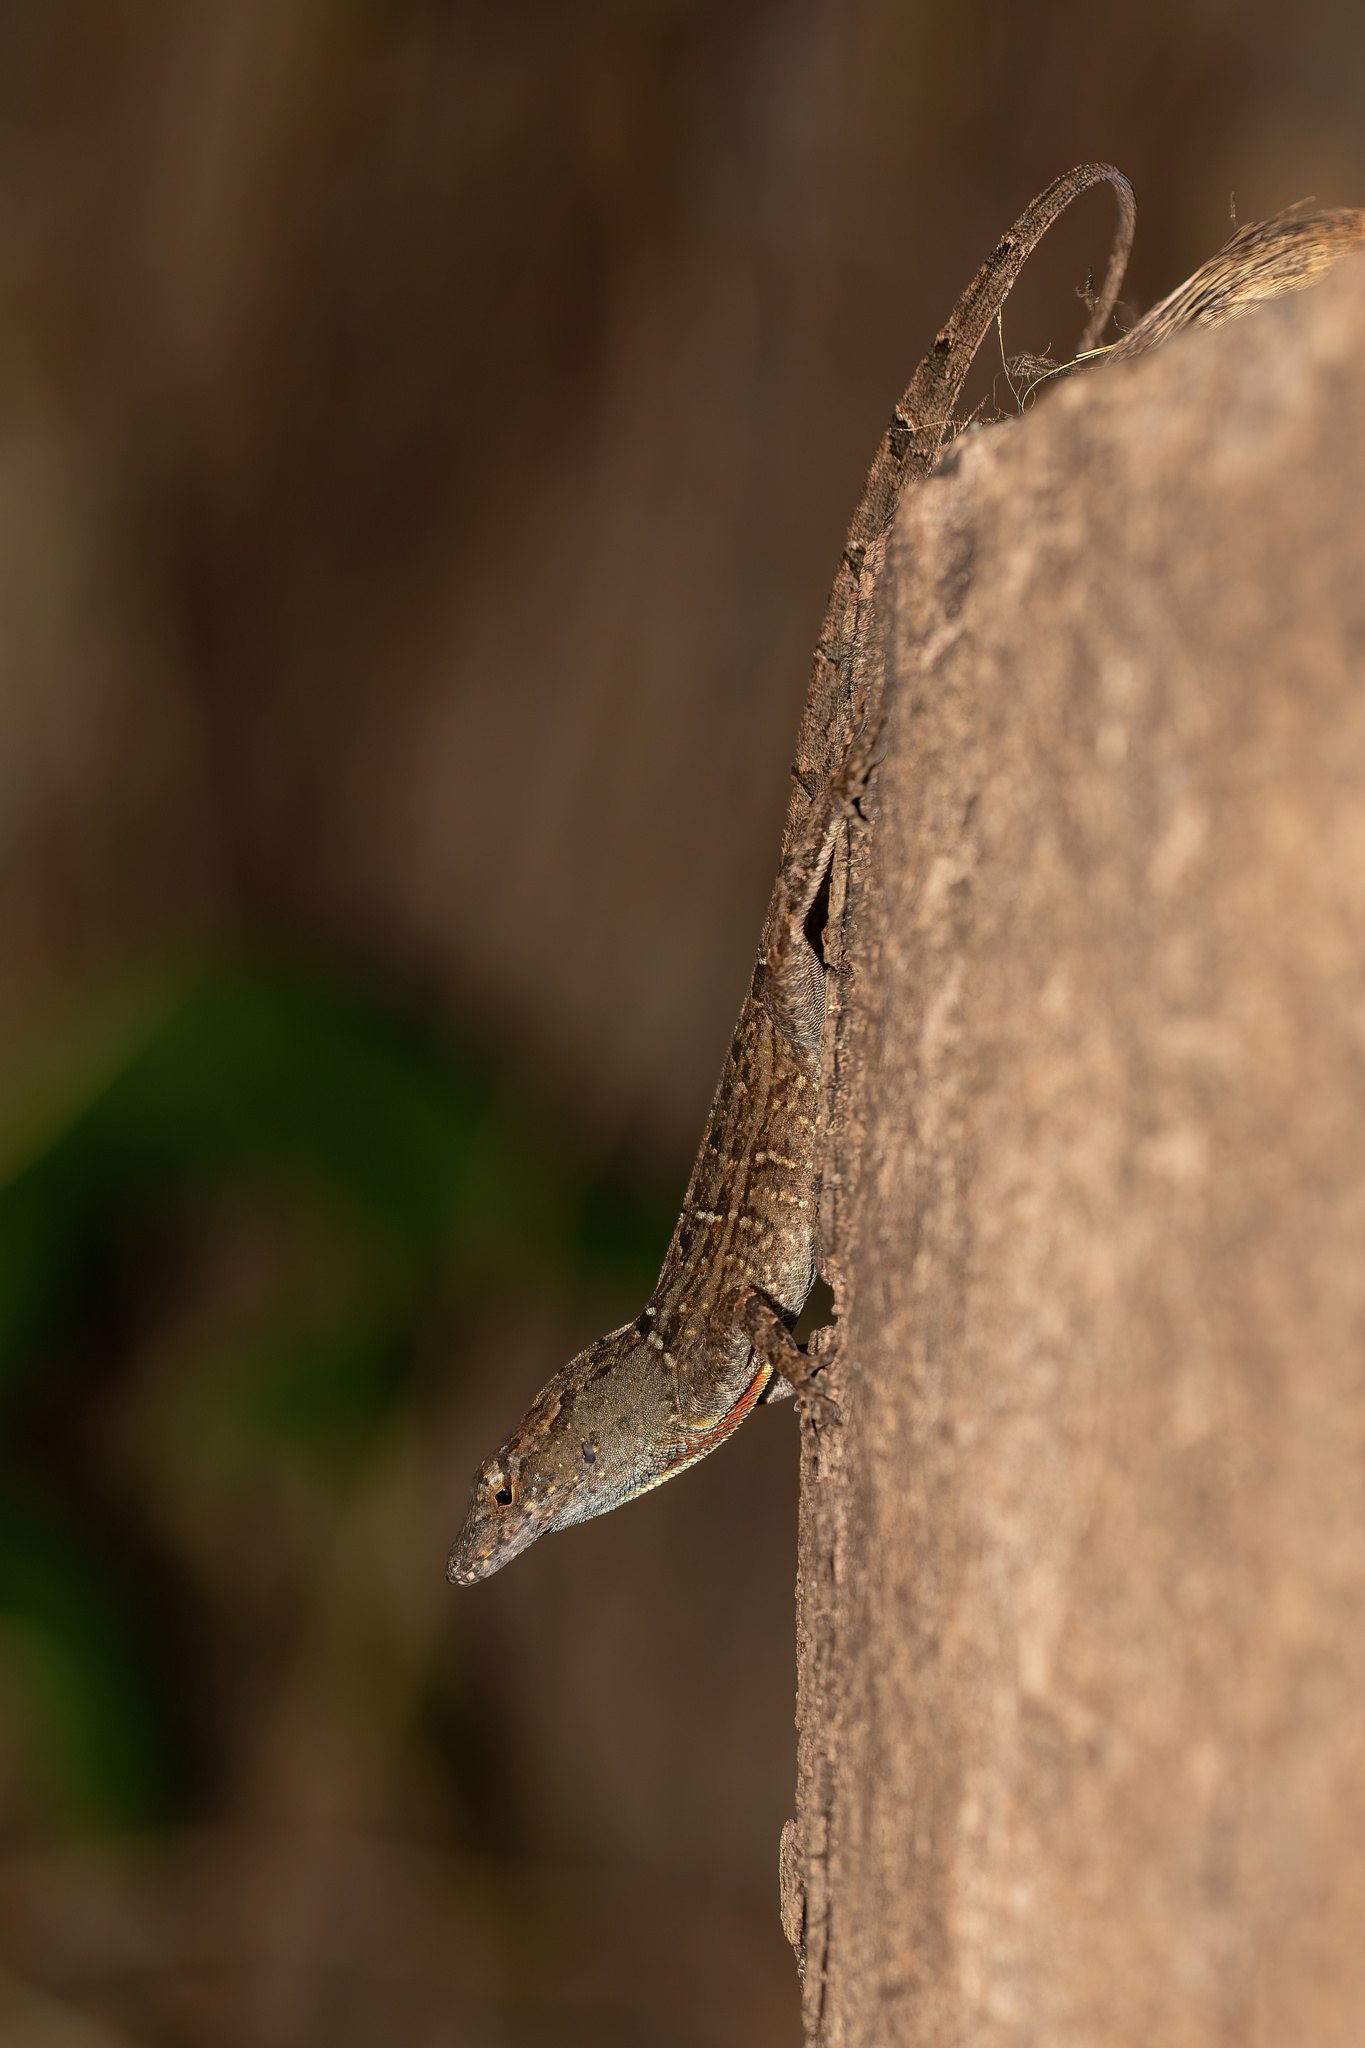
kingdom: Animalia
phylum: Chordata
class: Squamata
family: Dactyloidae
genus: Anolis
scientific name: Anolis sagrei
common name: Brown anole
